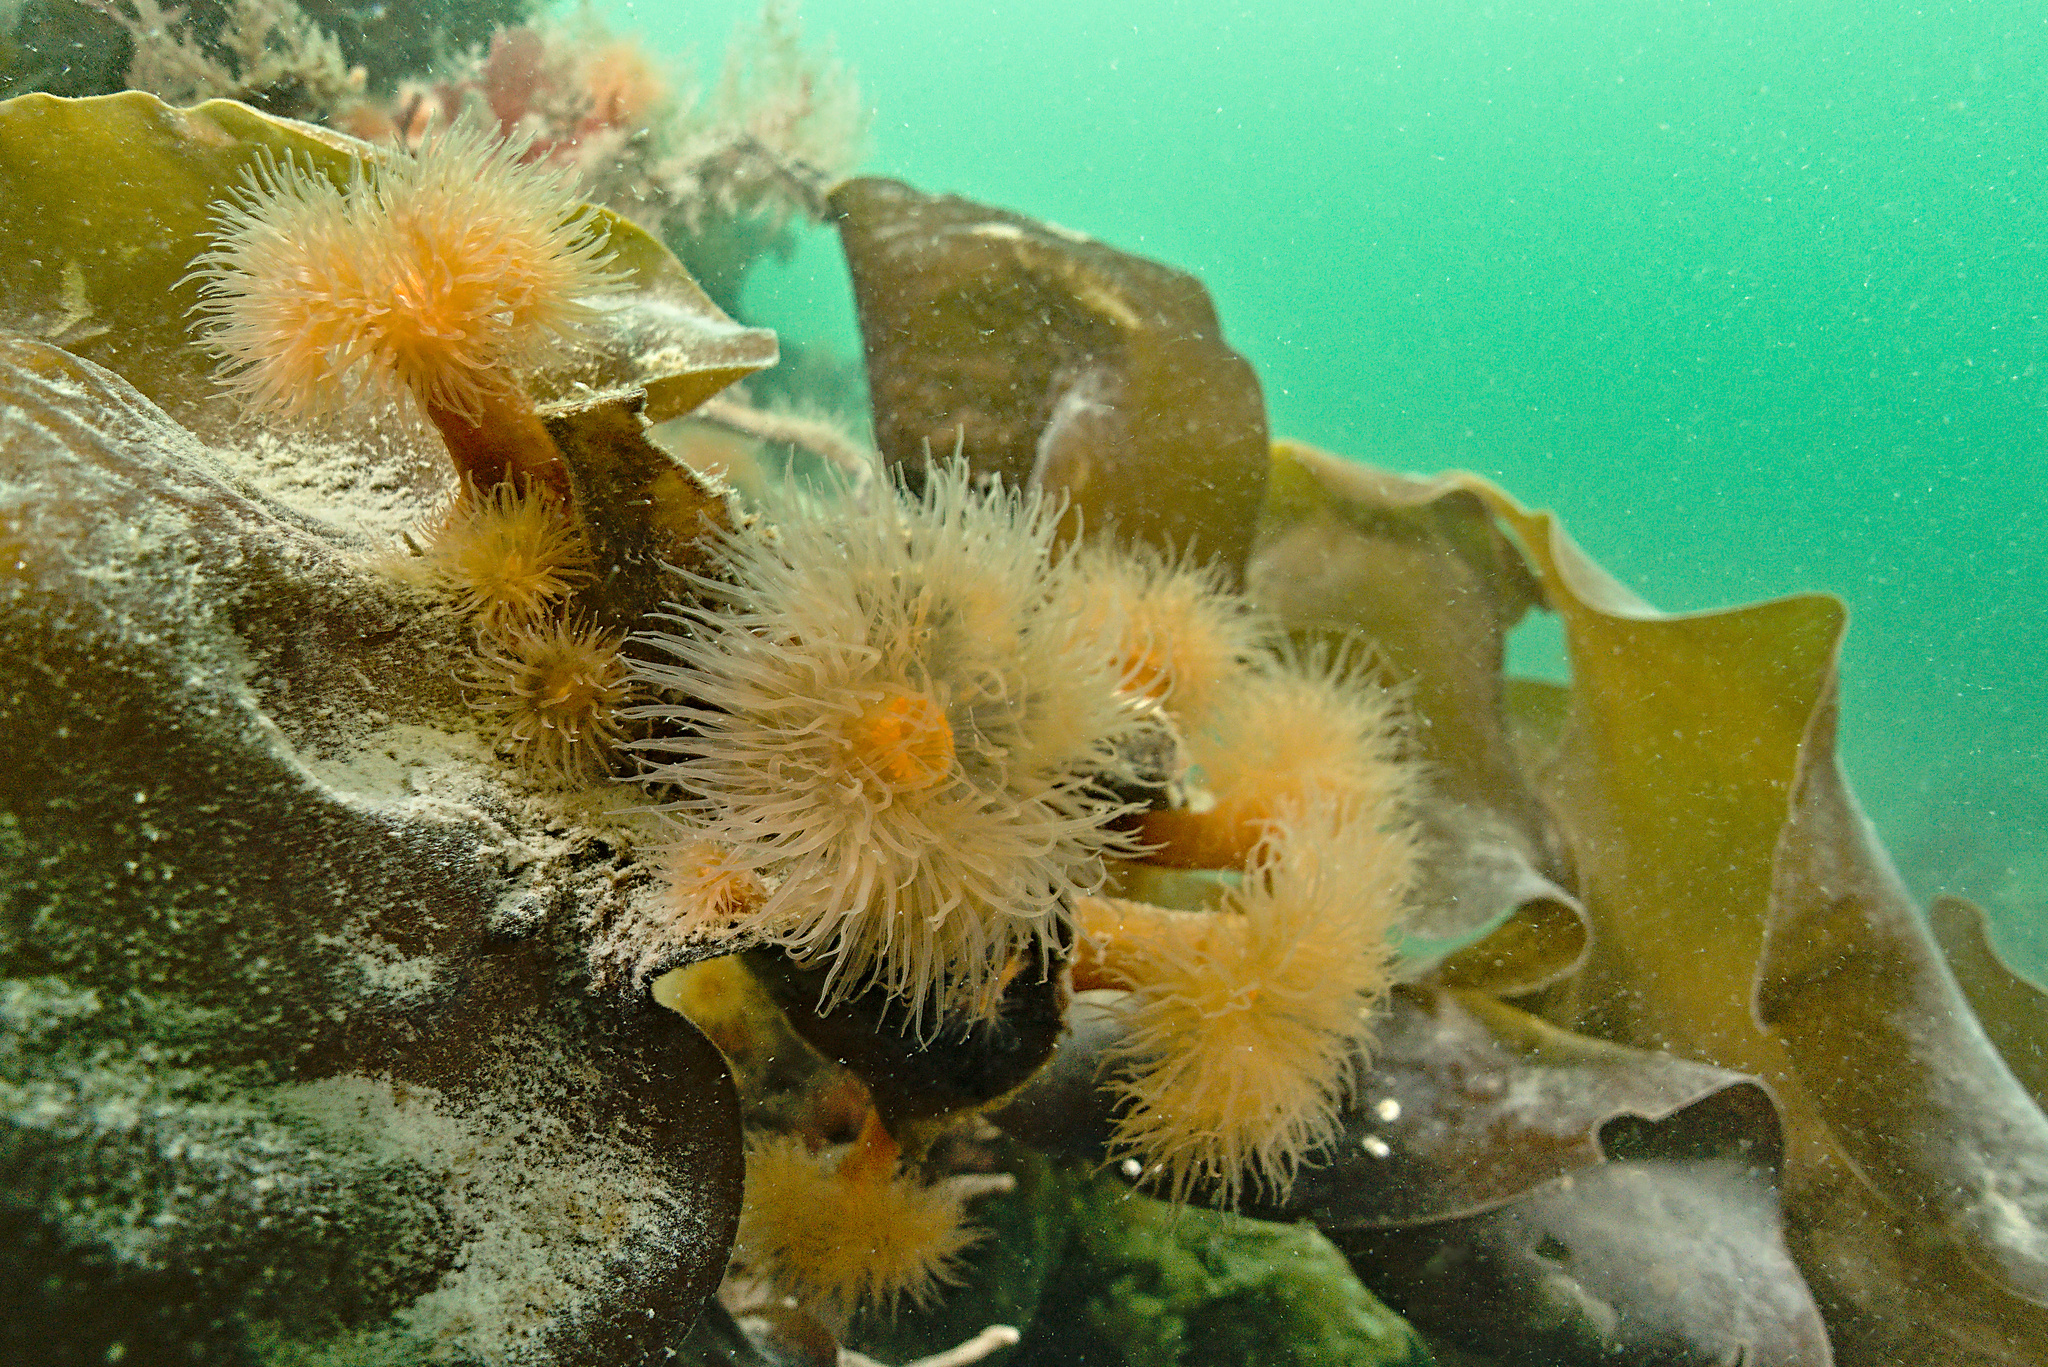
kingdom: Animalia
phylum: Cnidaria
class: Anthozoa
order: Actiniaria
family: Metridiidae
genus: Metridium
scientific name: Metridium senile
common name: Clonal plumose anemone
